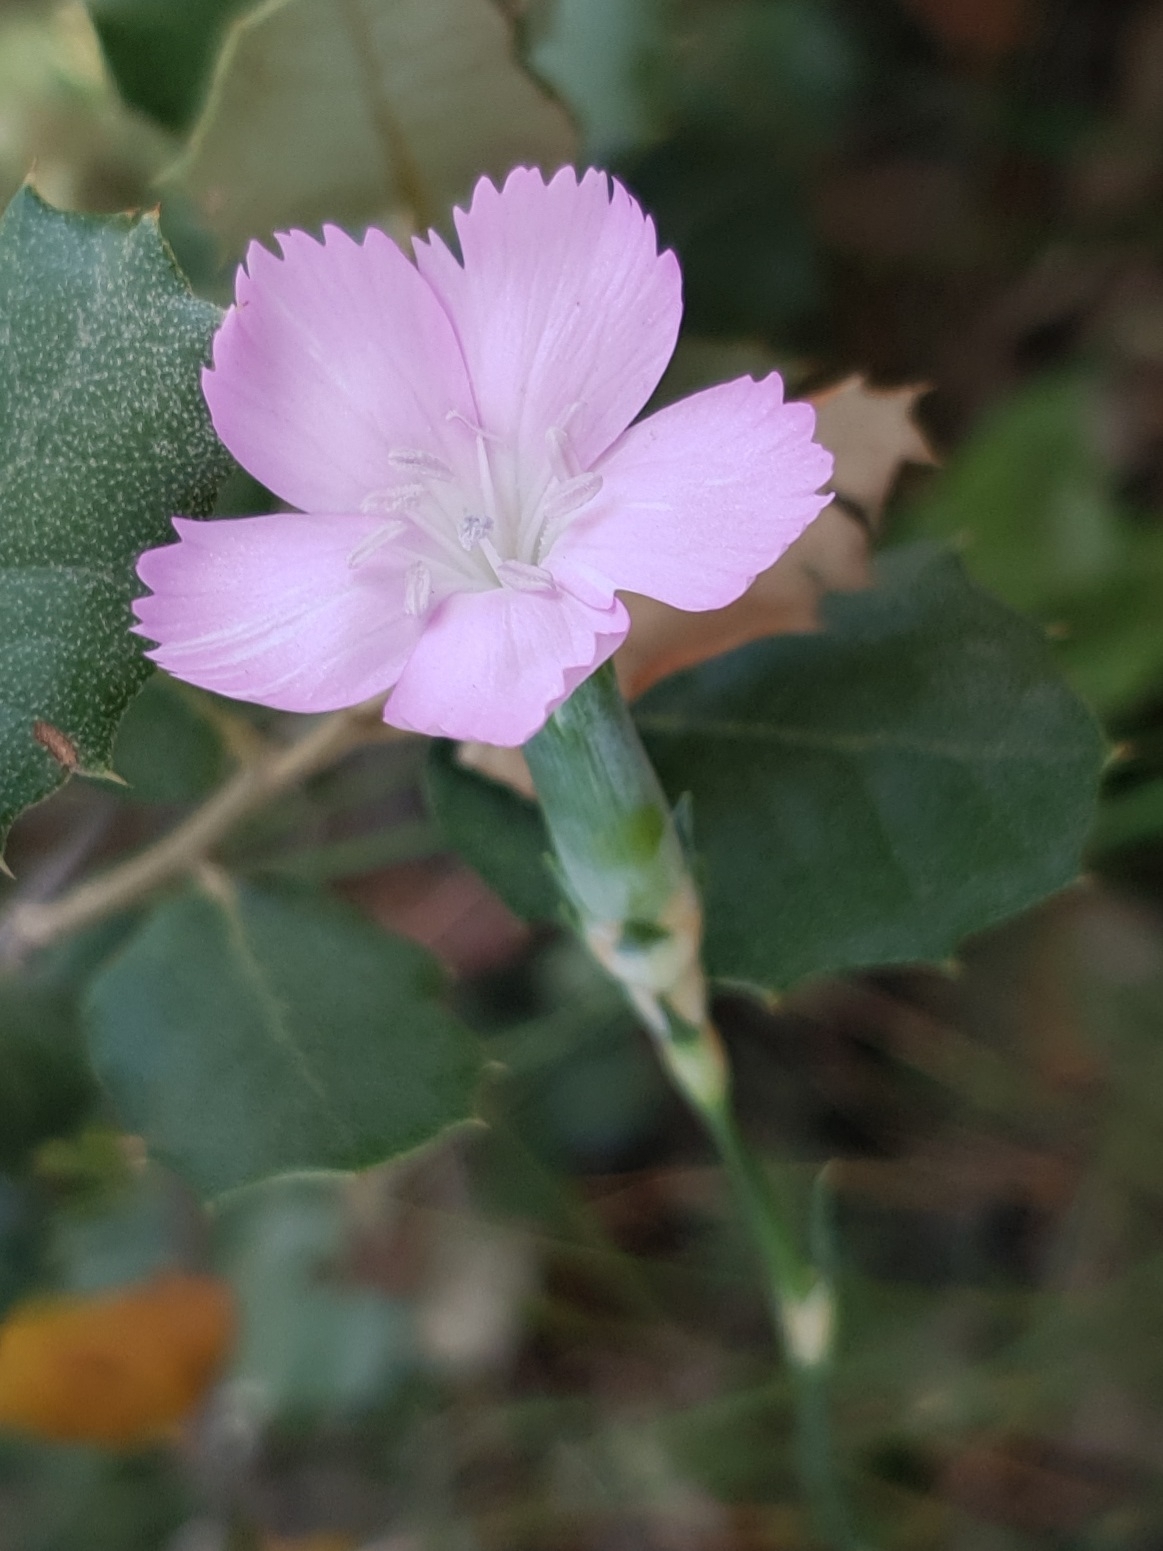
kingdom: Plantae
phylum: Tracheophyta
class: Magnoliopsida
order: Caryophyllales
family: Caryophyllaceae
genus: Dianthus
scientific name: Dianthus sylvestris
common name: Wood pink
